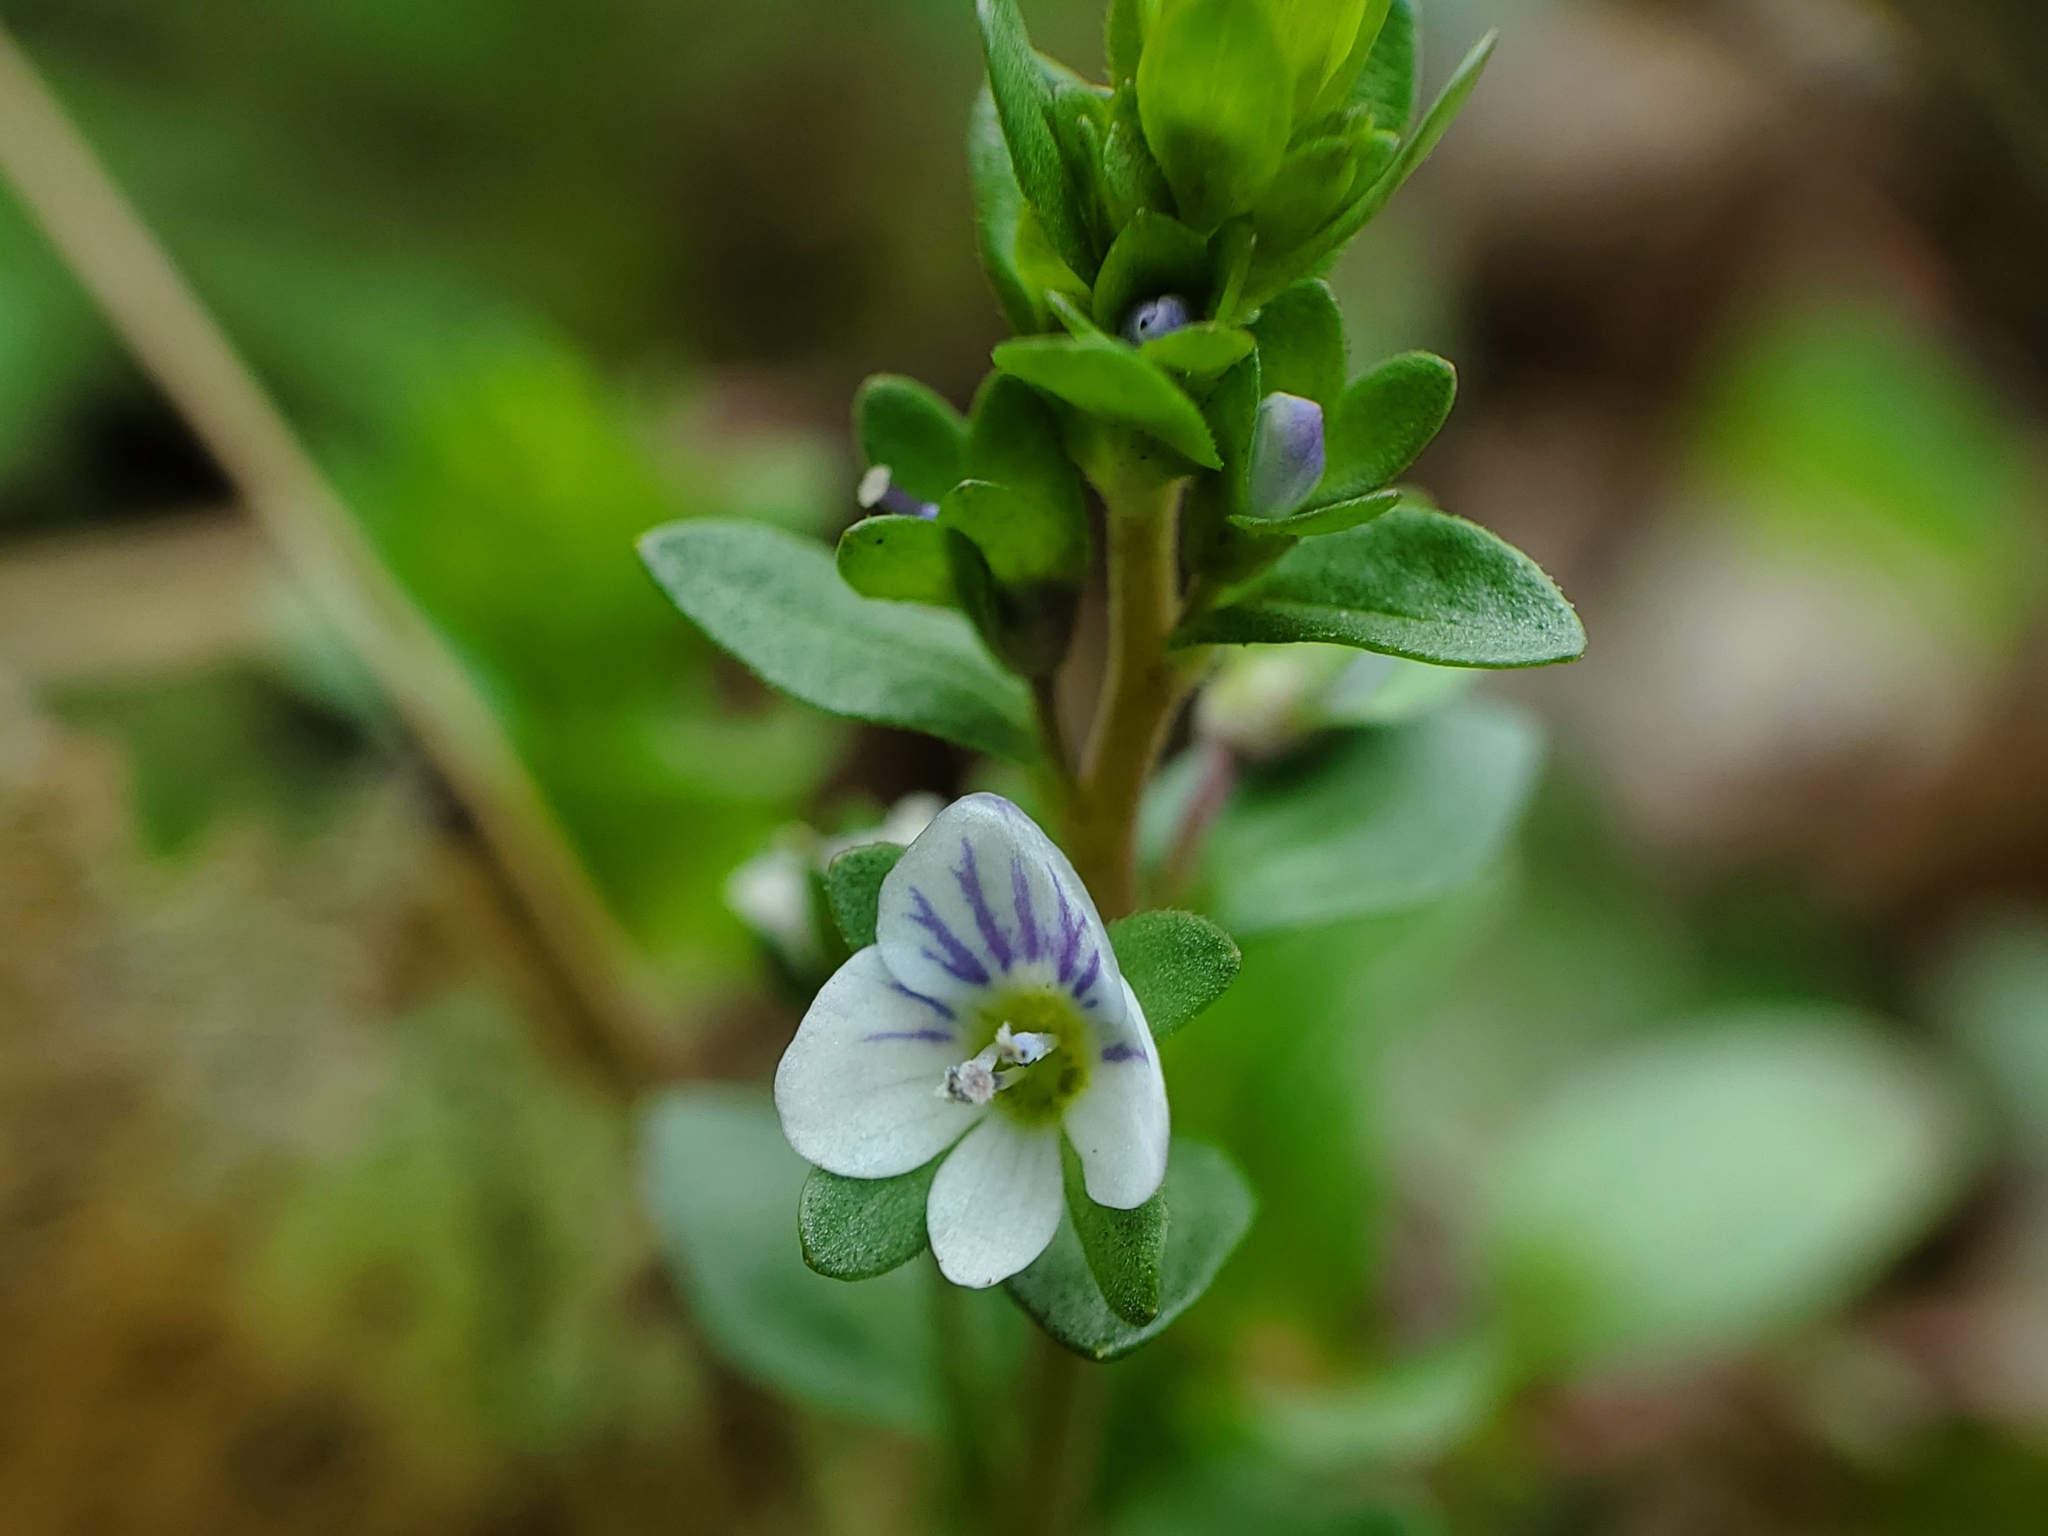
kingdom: Plantae
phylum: Tracheophyta
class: Magnoliopsida
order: Lamiales
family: Plantaginaceae
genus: Veronica
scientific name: Veronica serpyllifolia
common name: Thyme-leaved speedwell
